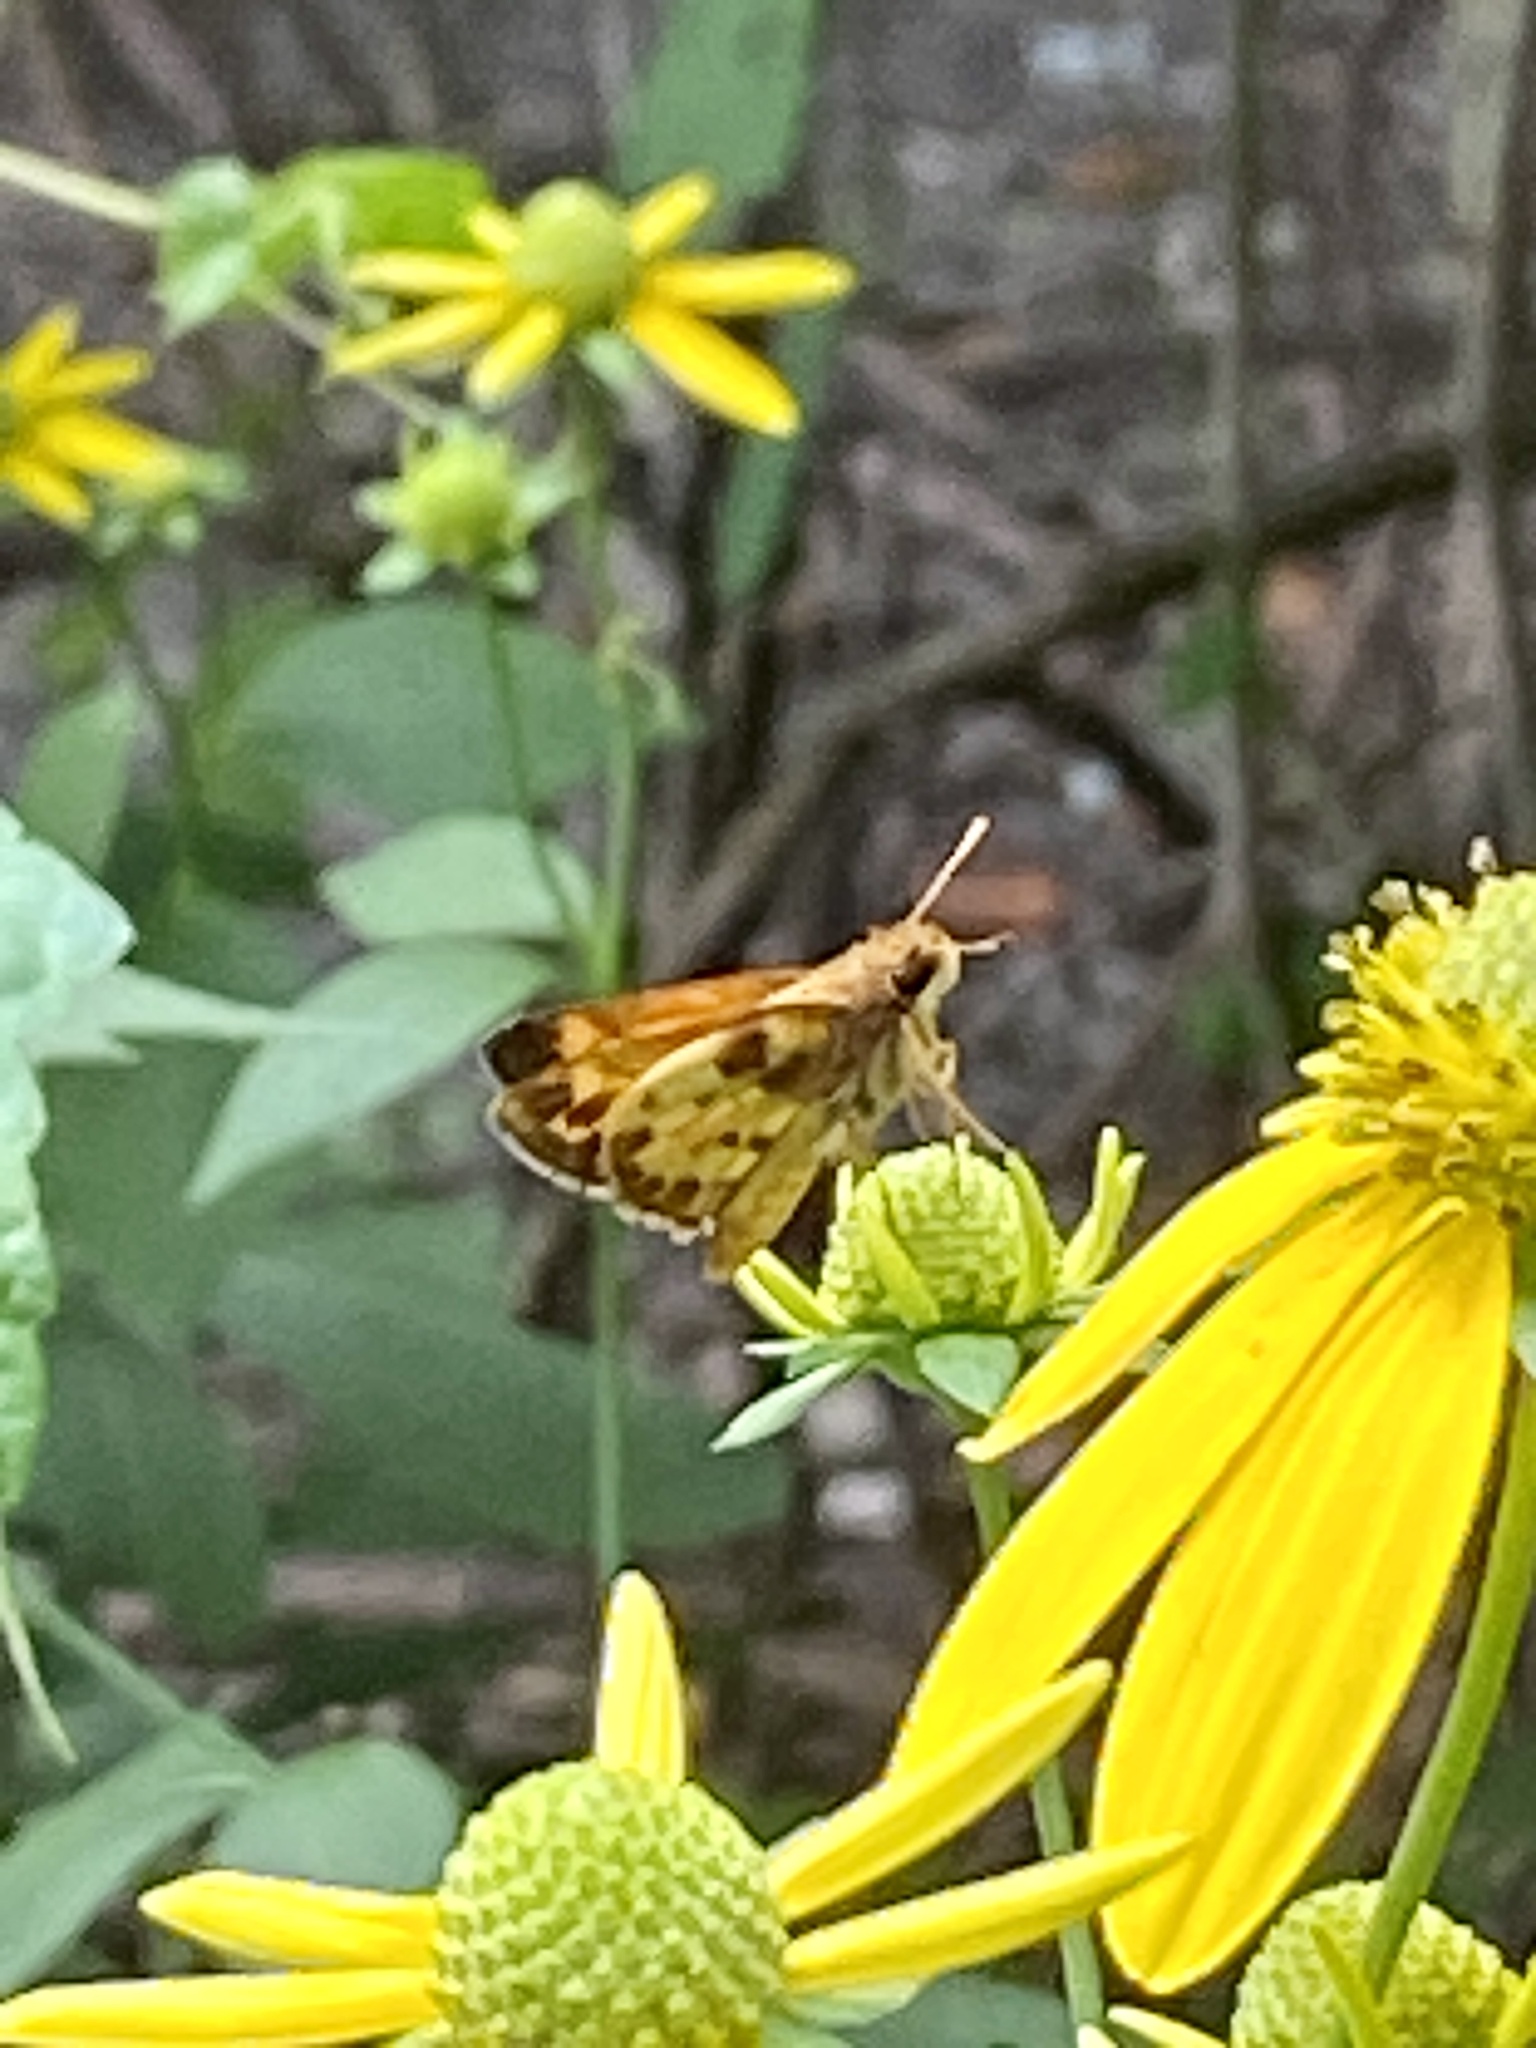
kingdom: Animalia
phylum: Arthropoda
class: Insecta
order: Lepidoptera
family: Hesperiidae
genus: Lon
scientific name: Lon zabulon
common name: Zabulon skipper
